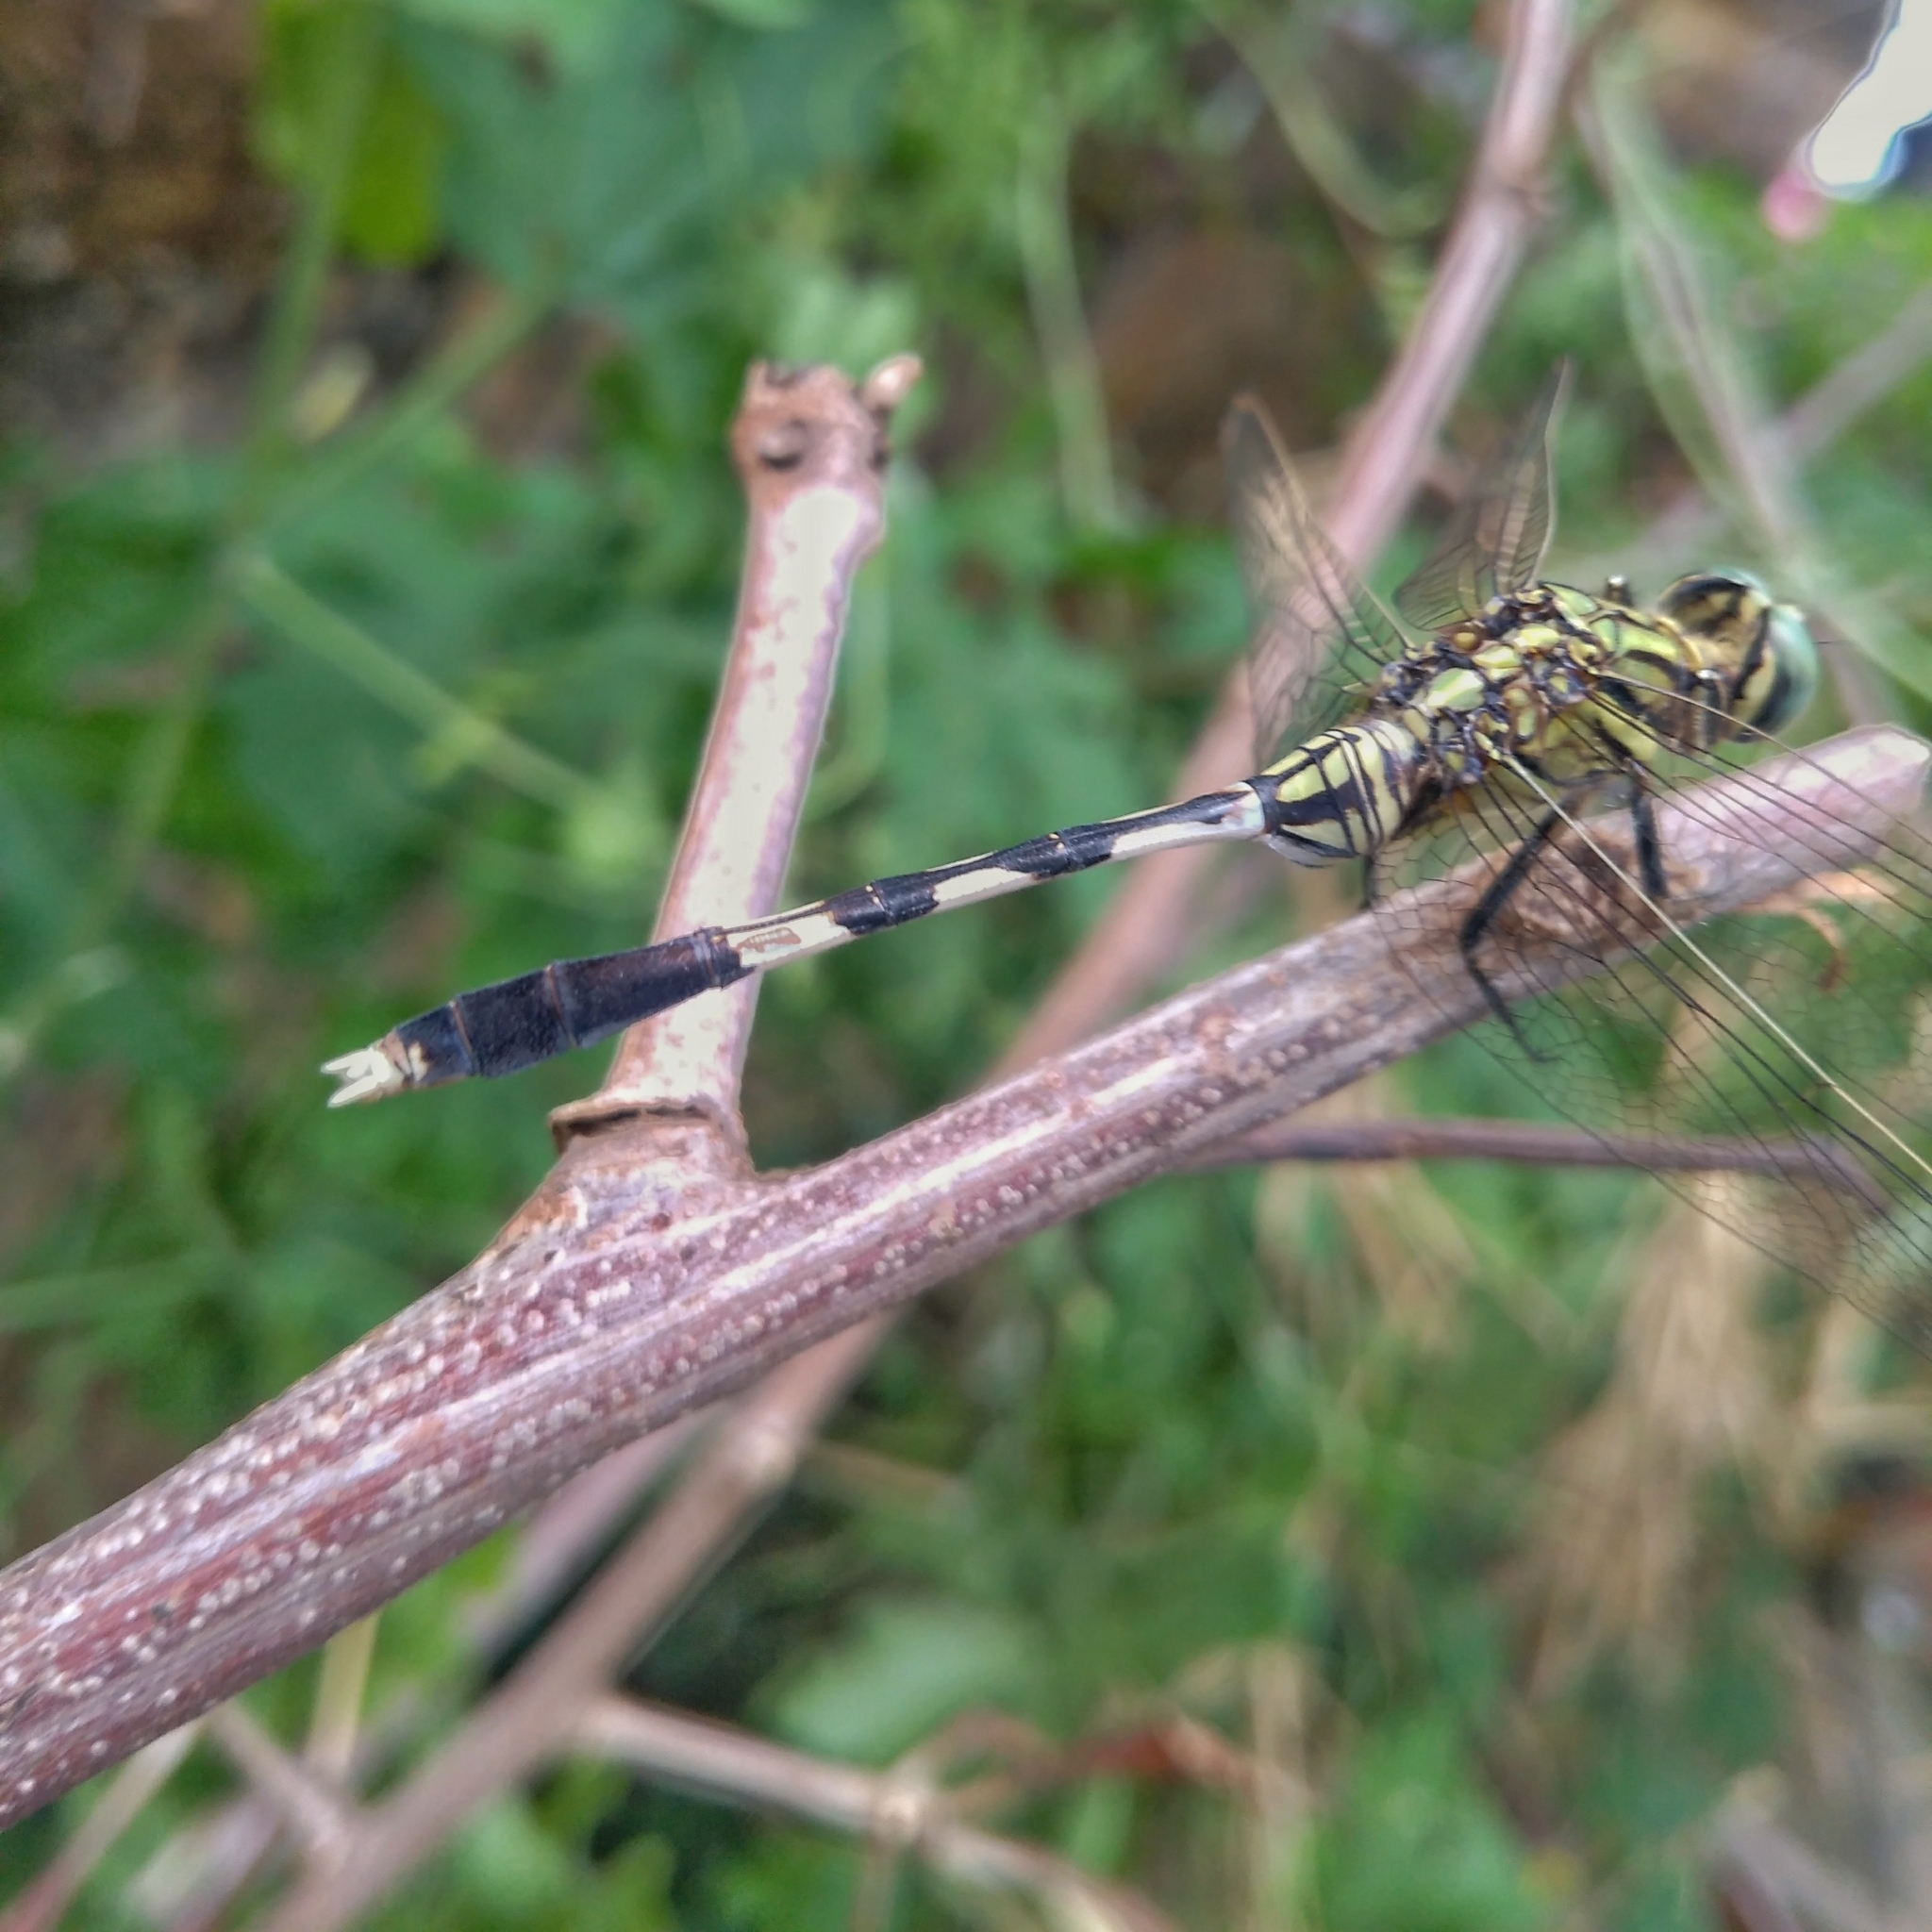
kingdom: Animalia
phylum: Arthropoda
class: Insecta
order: Odonata
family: Libellulidae
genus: Orthetrum
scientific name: Orthetrum sabina
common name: Slender skimmer
